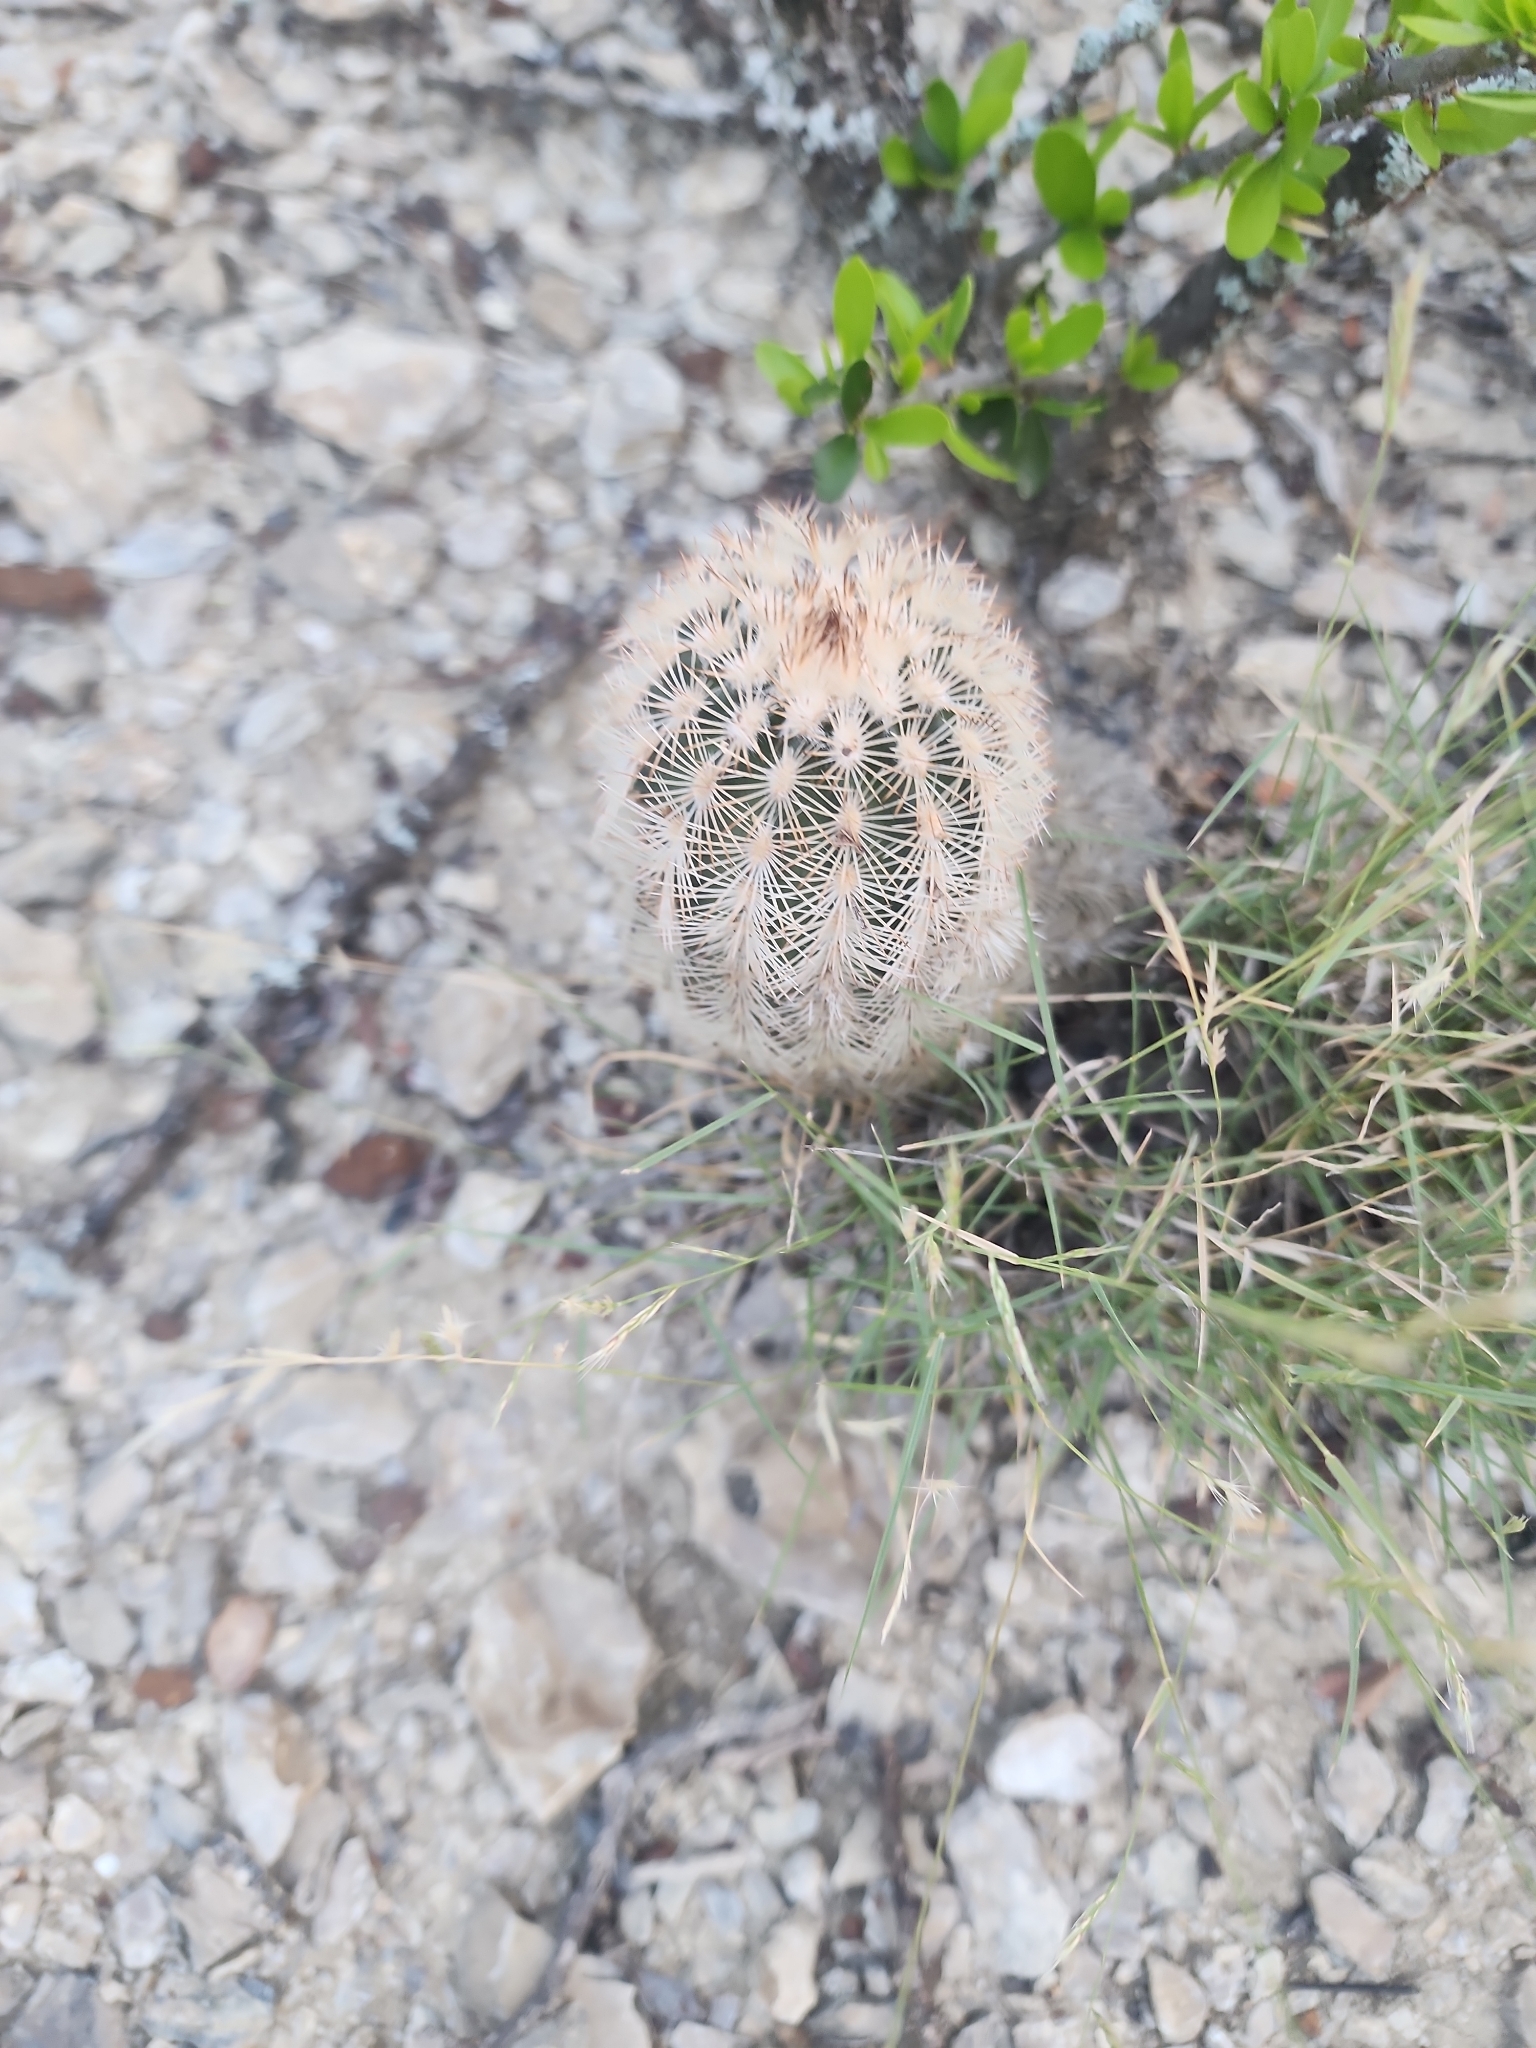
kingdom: Plantae
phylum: Tracheophyta
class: Magnoliopsida
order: Caryophyllales
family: Cactaceae
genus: Echinocereus
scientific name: Echinocereus reichenbachii
